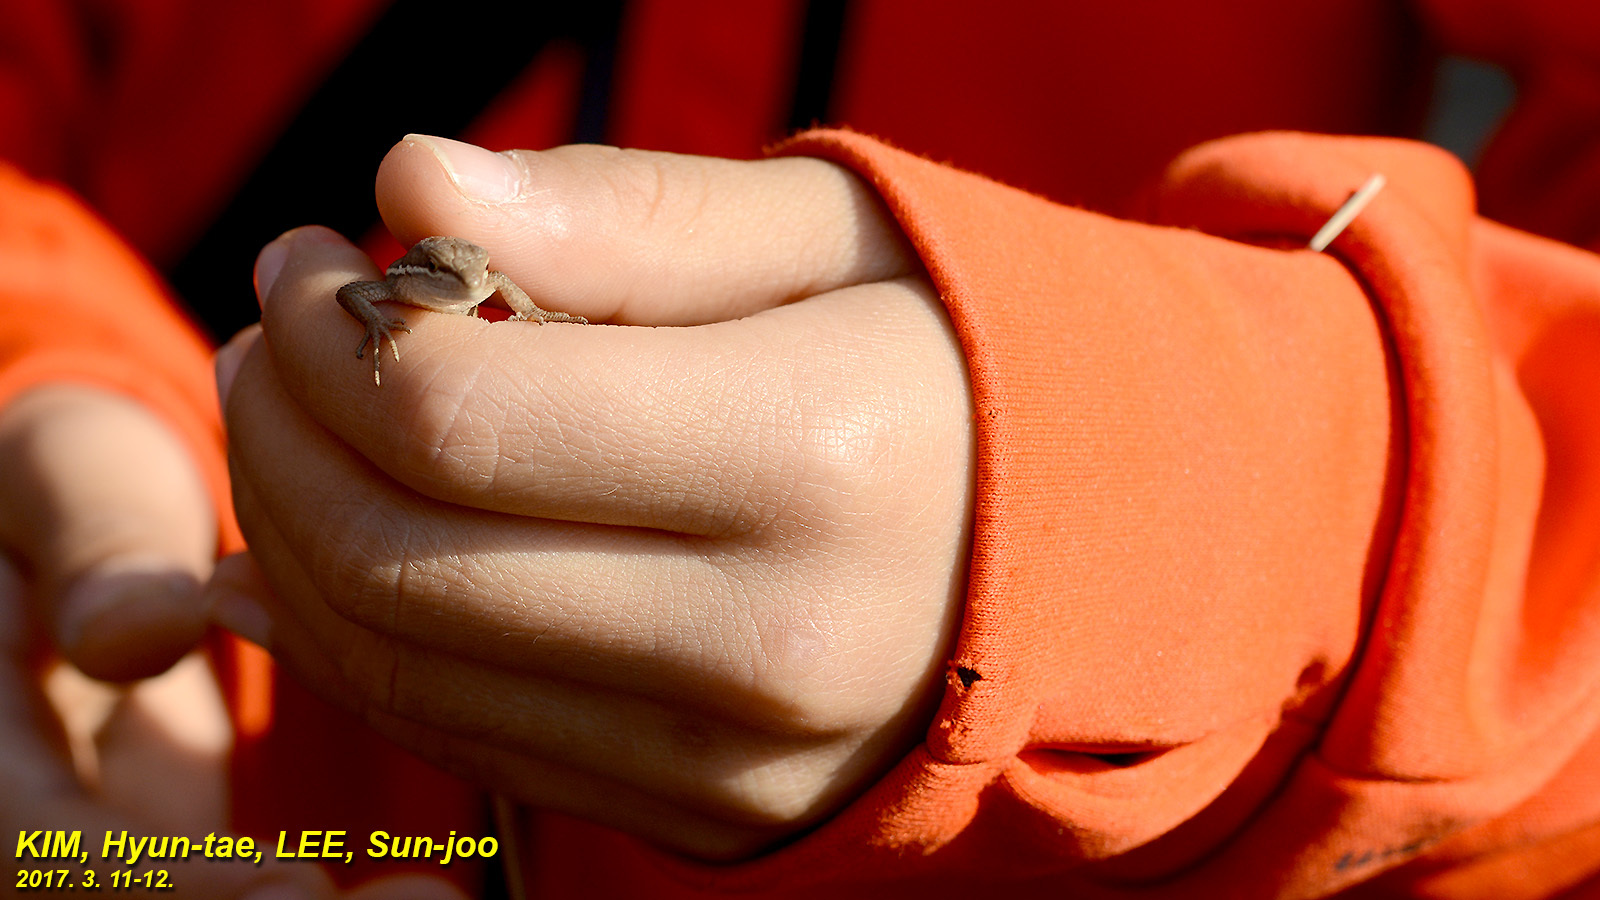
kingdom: Animalia
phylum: Chordata
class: Squamata
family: Lacertidae
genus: Takydromus
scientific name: Takydromus wolteri
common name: Mountain grass lizard
